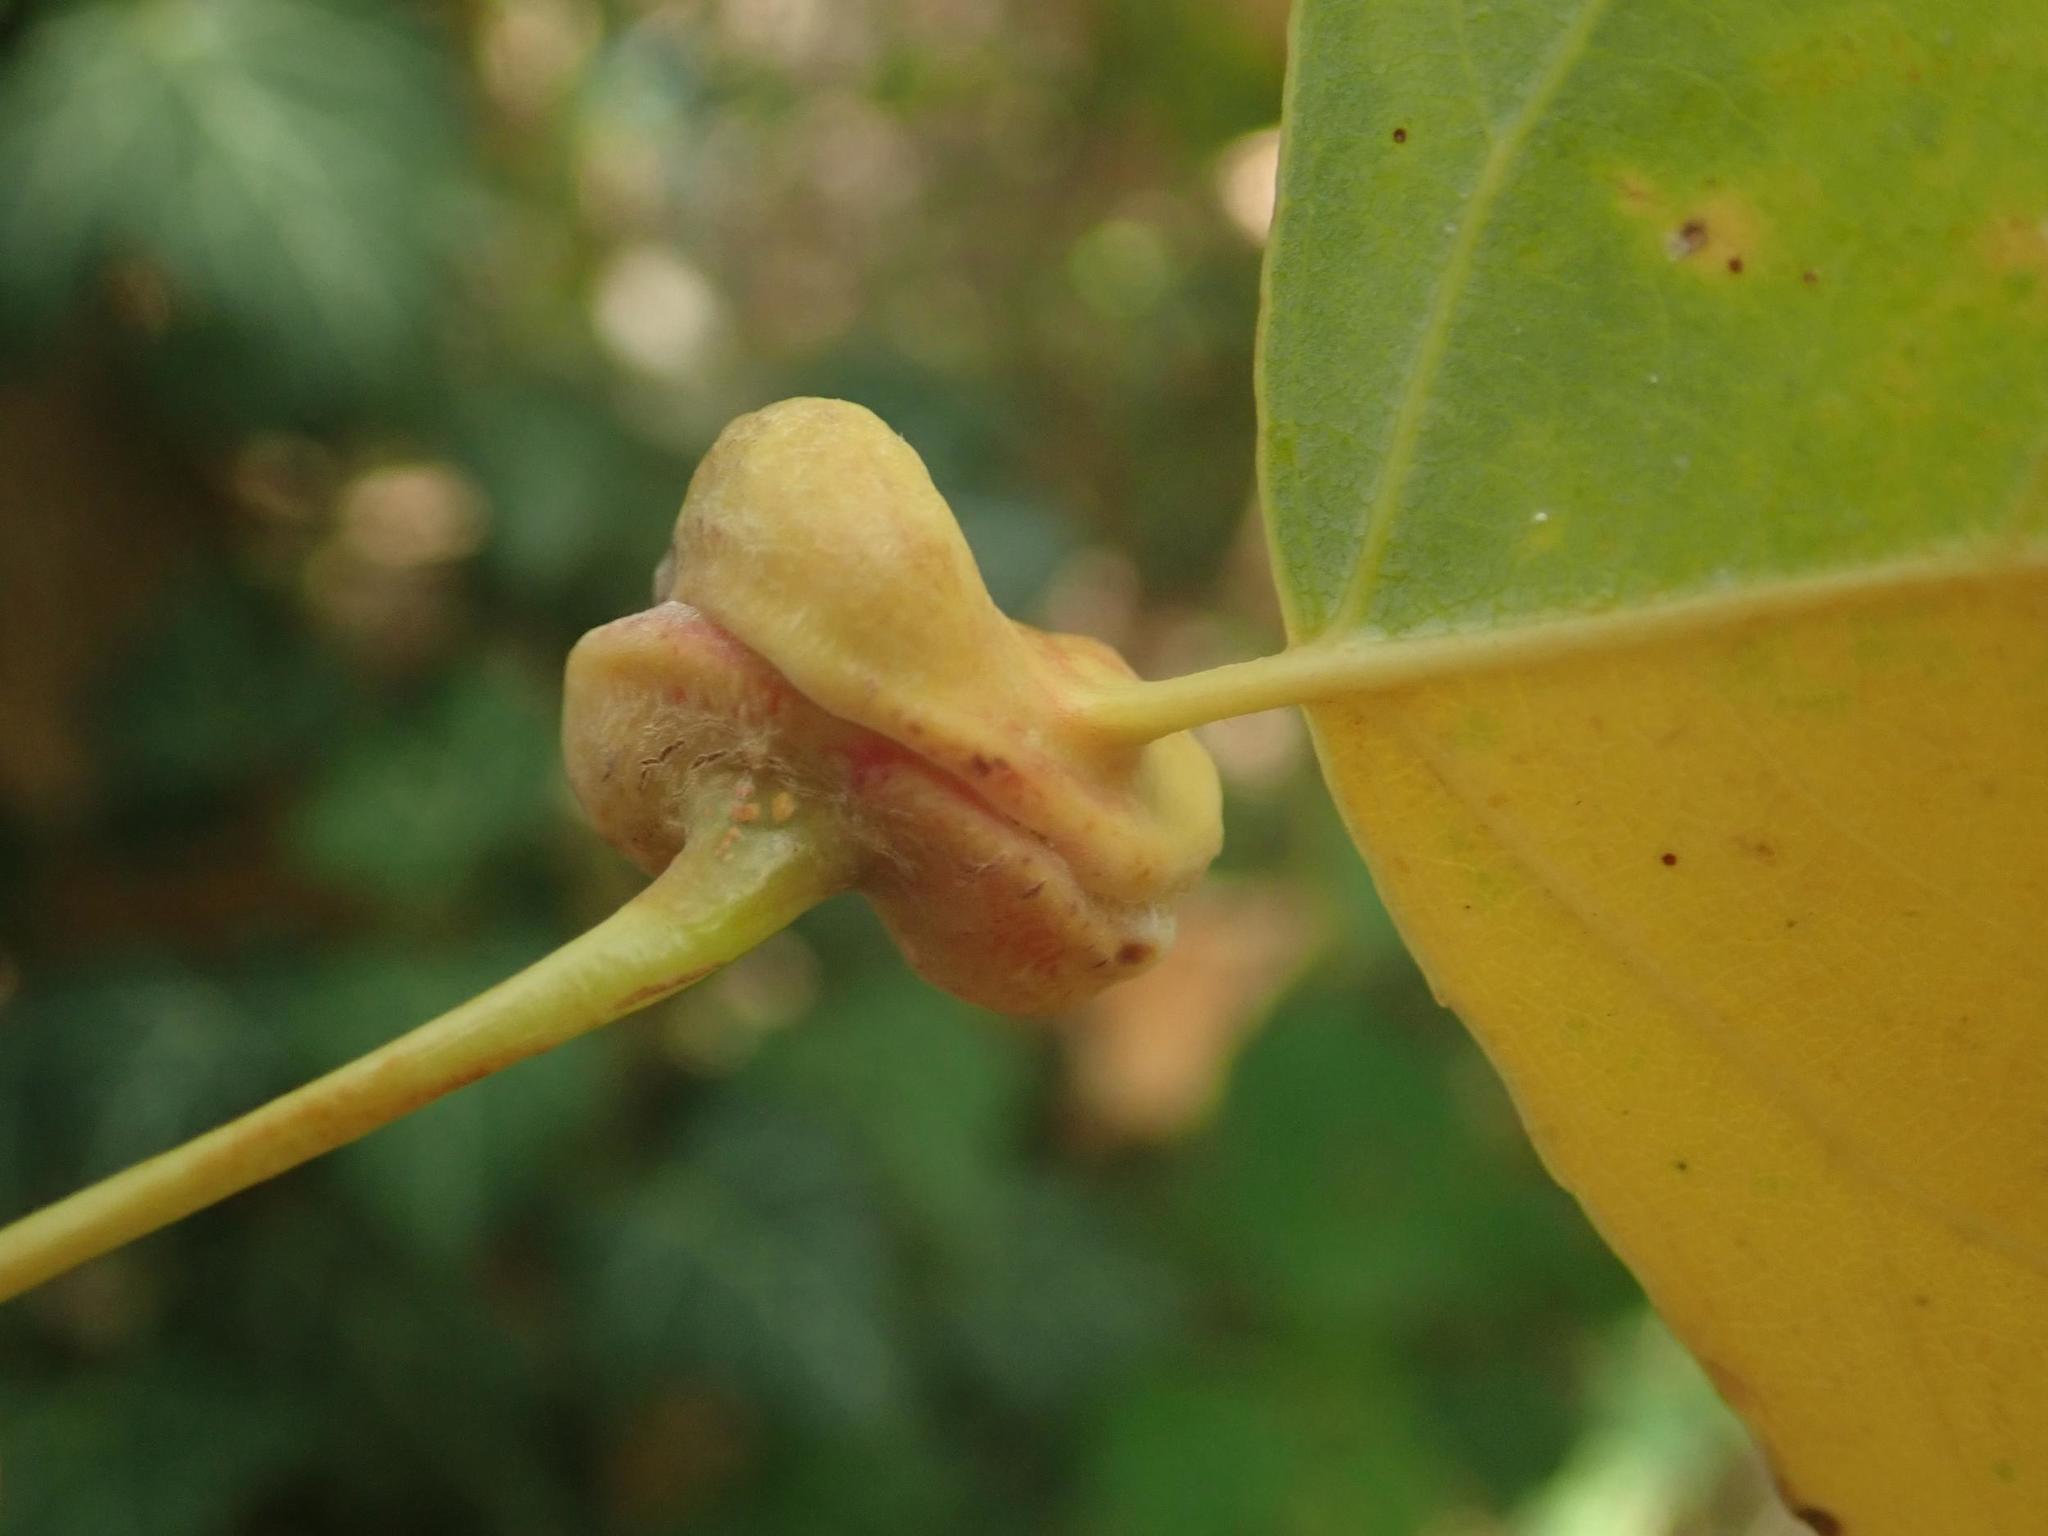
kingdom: Animalia
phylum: Arthropoda
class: Insecta
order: Hemiptera
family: Aphididae
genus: Pemphigus
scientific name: Pemphigus spyrothecae
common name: Aphid
